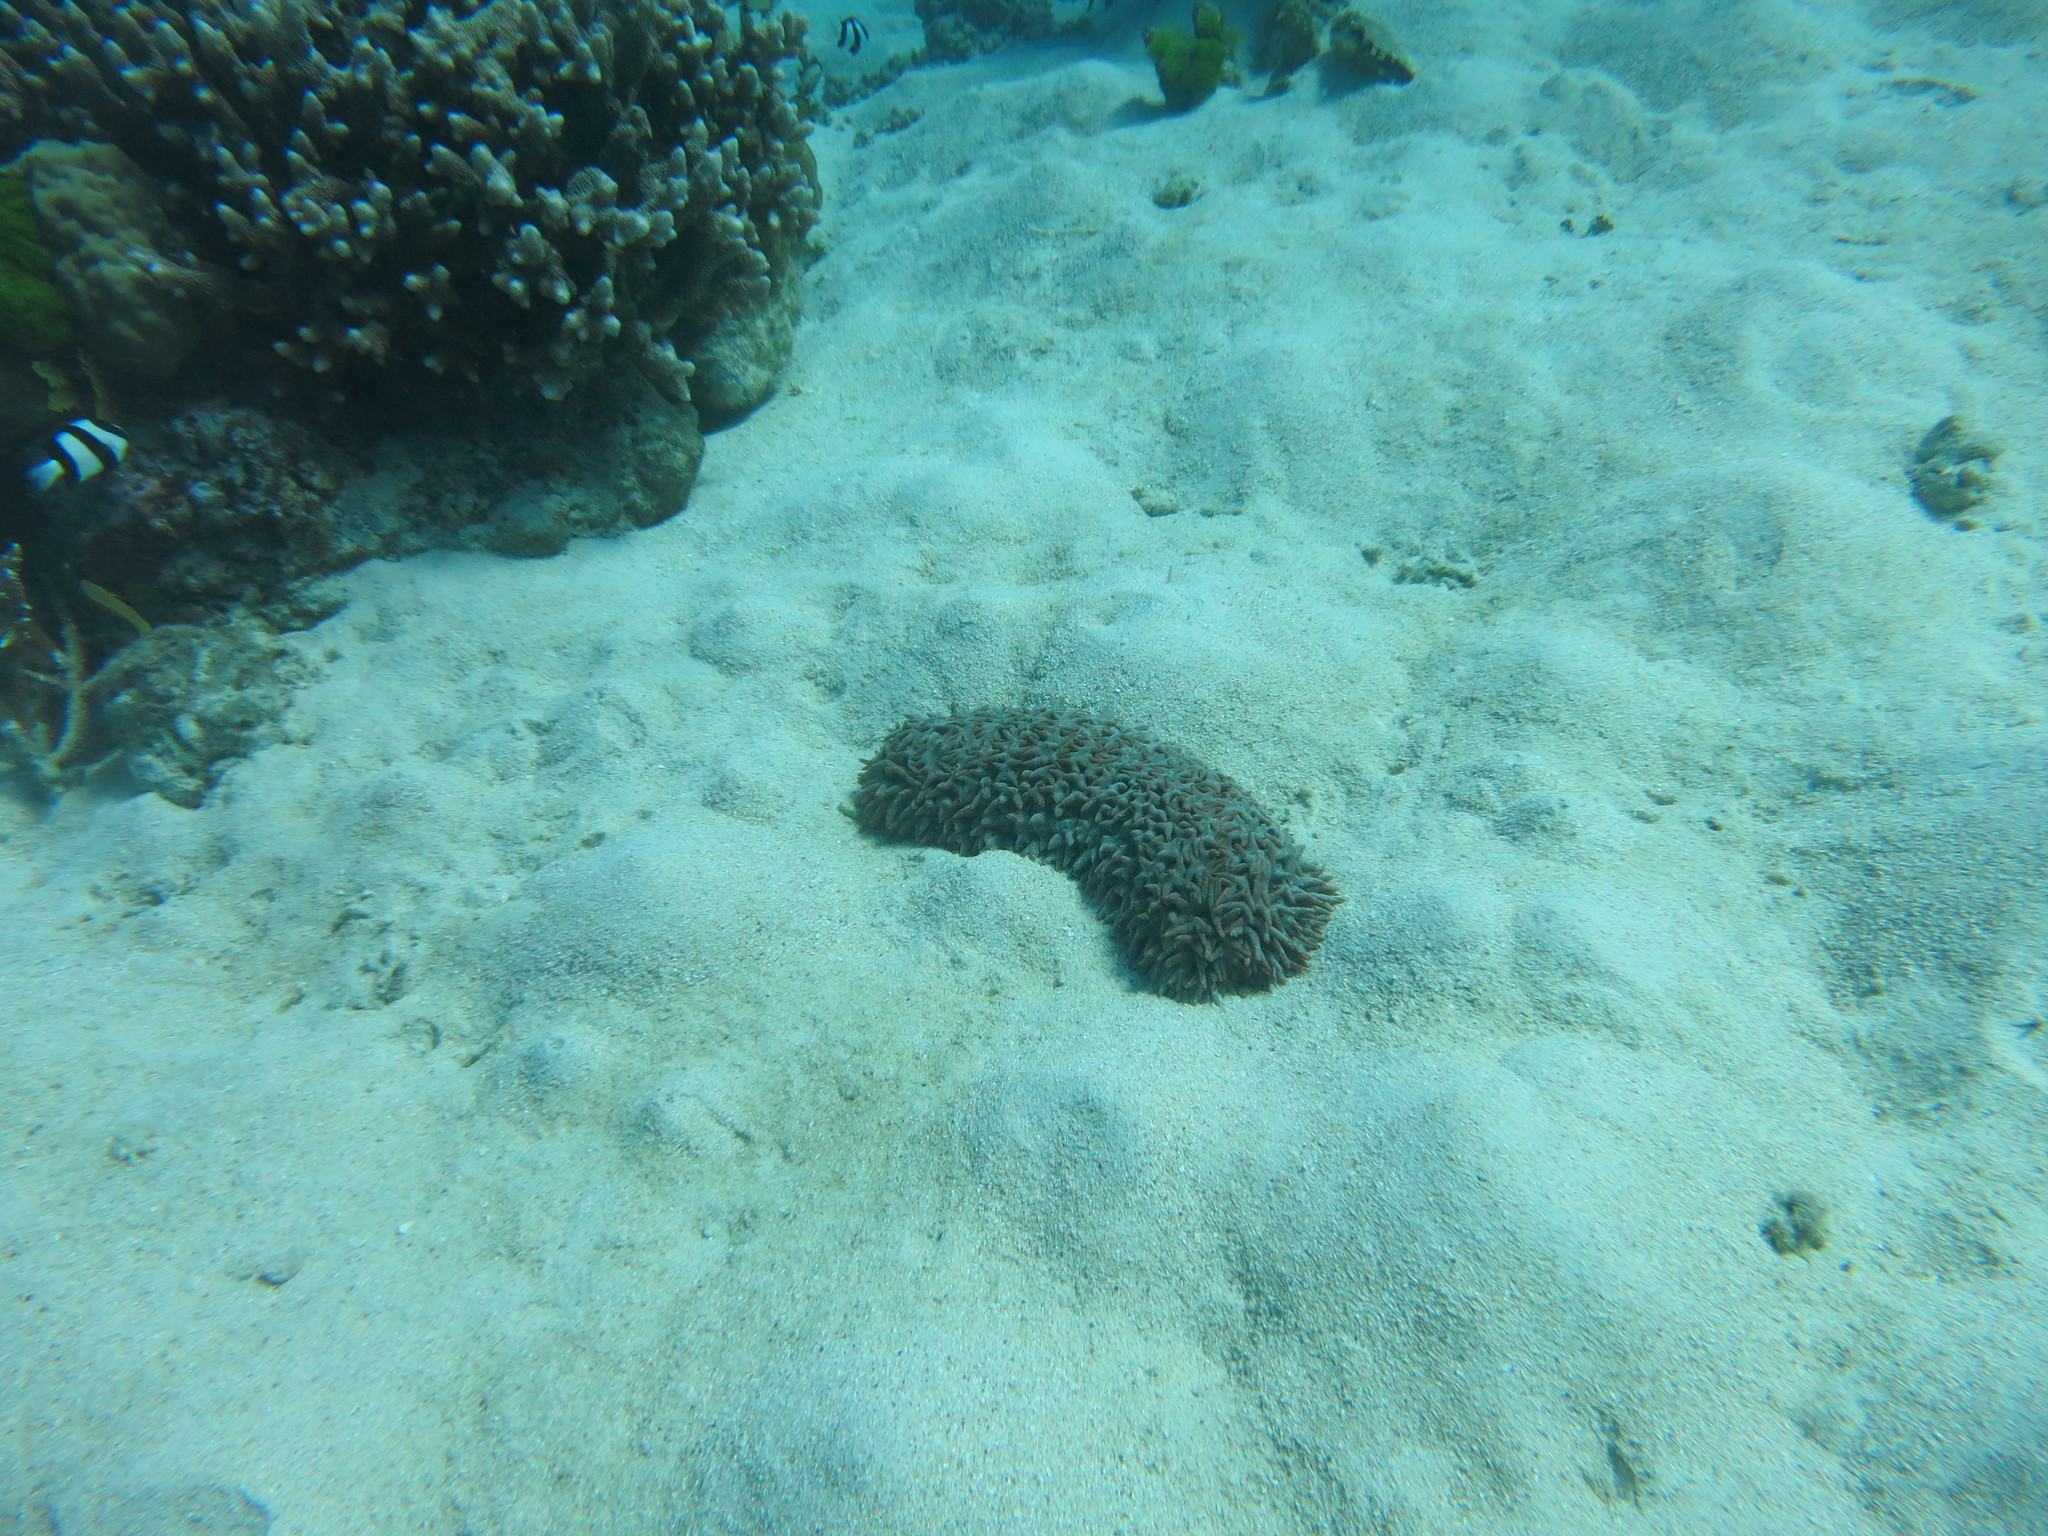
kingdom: Animalia
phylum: Echinodermata
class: Holothuroidea
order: Synallactida
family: Stichopodidae
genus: Thelenota
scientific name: Thelenota ananas
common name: Prickly redfish
